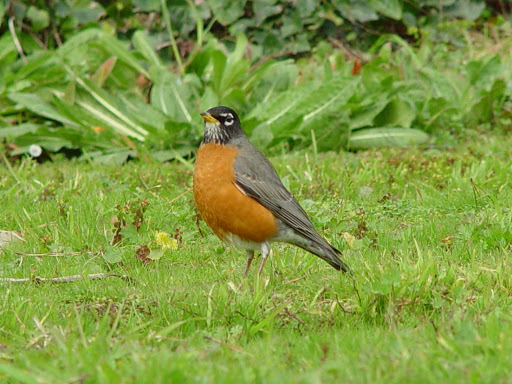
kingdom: Animalia
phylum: Chordata
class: Aves
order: Passeriformes
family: Turdidae
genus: Turdus
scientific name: Turdus migratorius
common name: American robin
